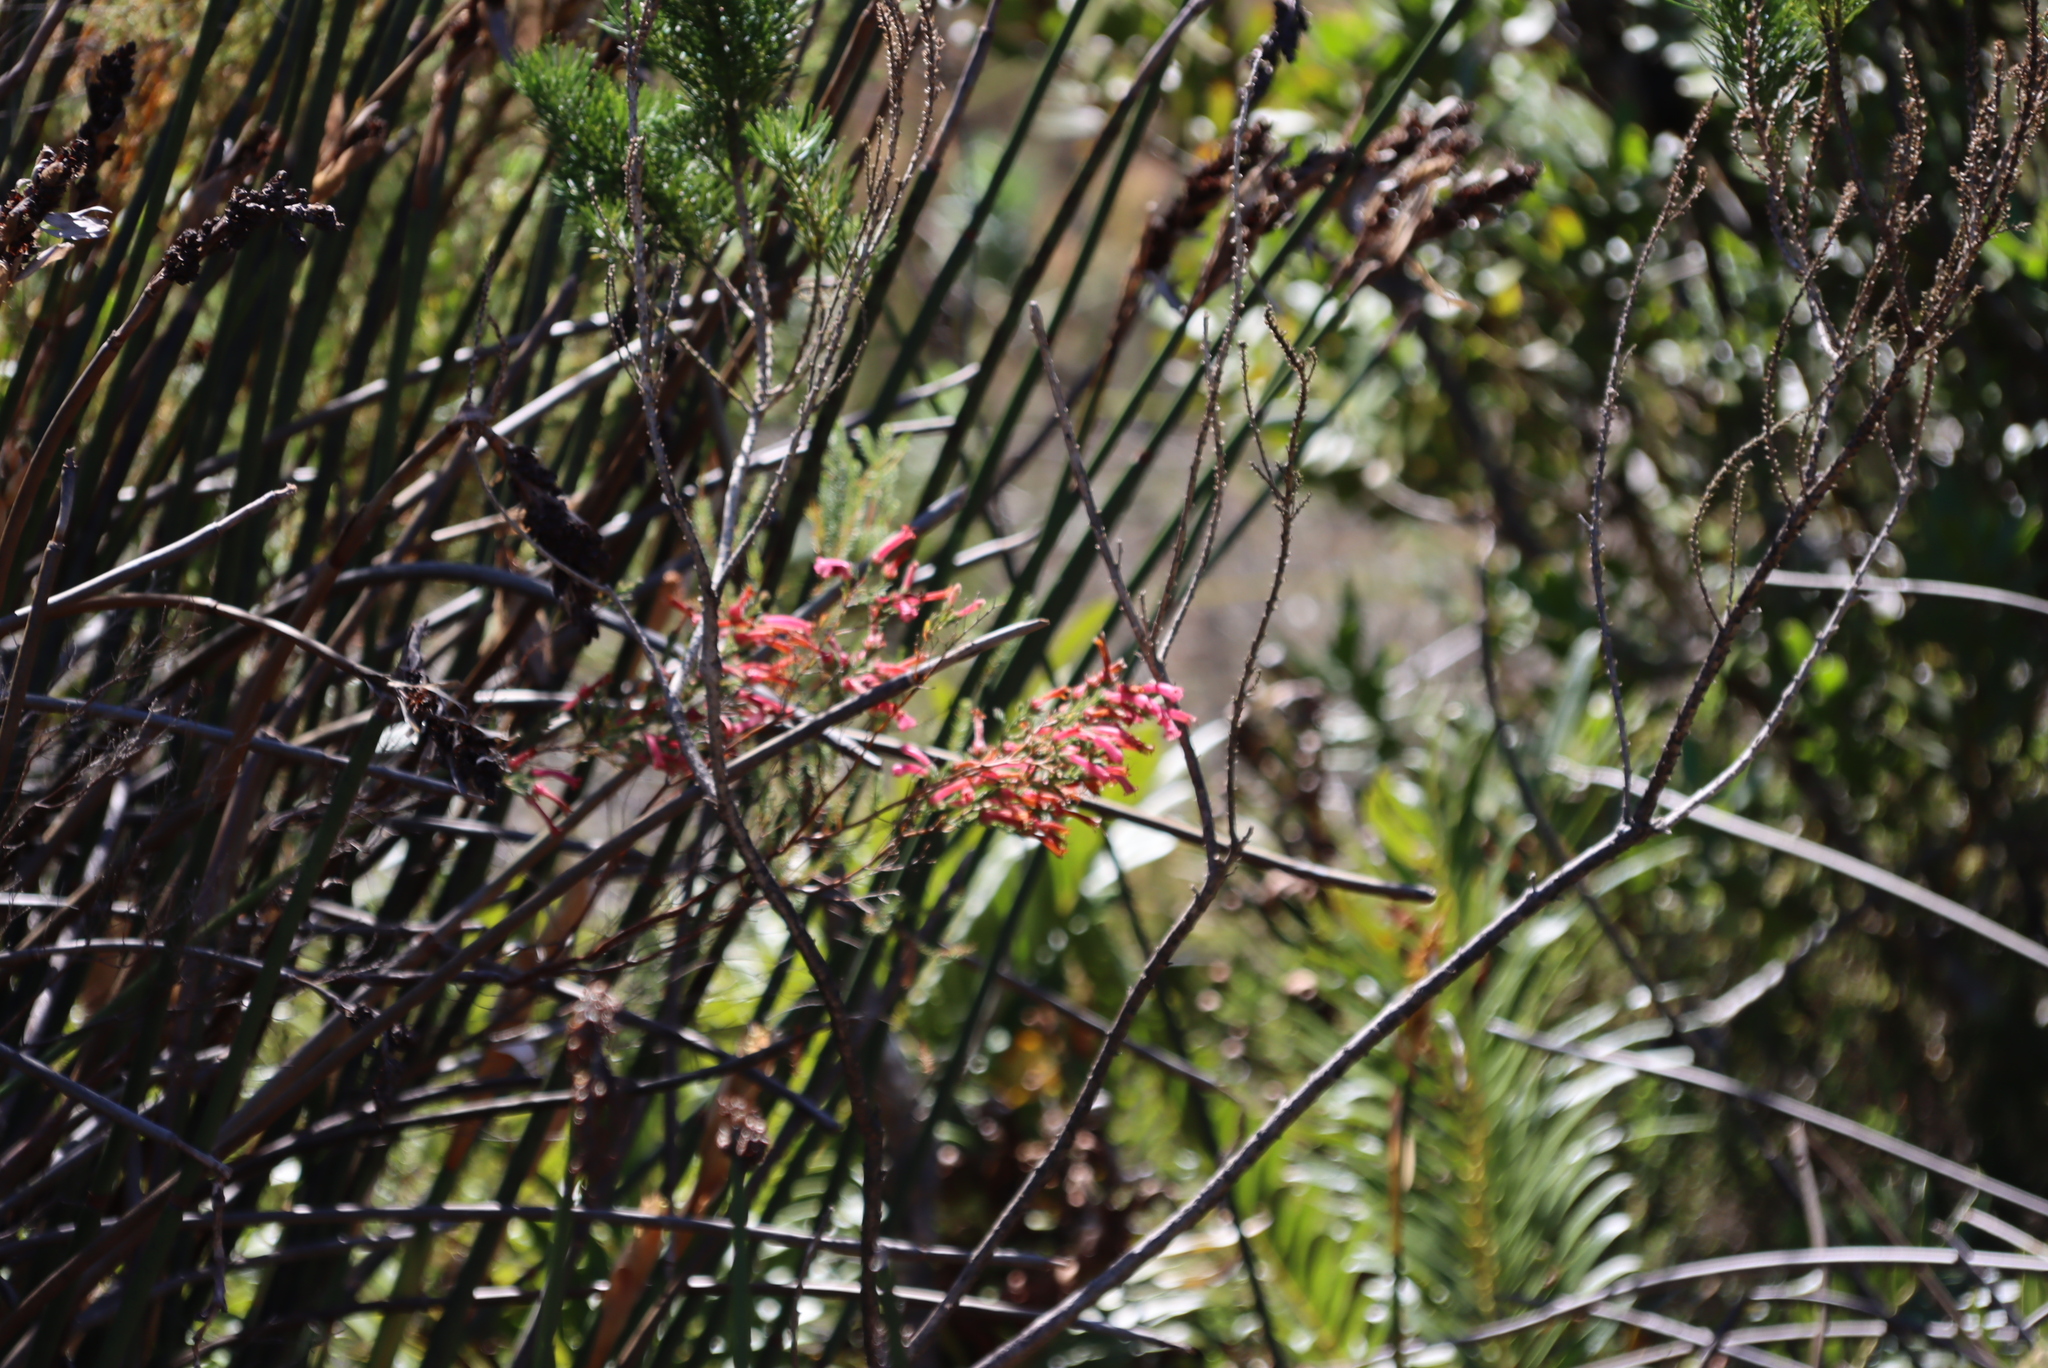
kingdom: Plantae
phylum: Tracheophyta
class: Magnoliopsida
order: Ericales
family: Ericaceae
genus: Erica
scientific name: Erica curviflora
